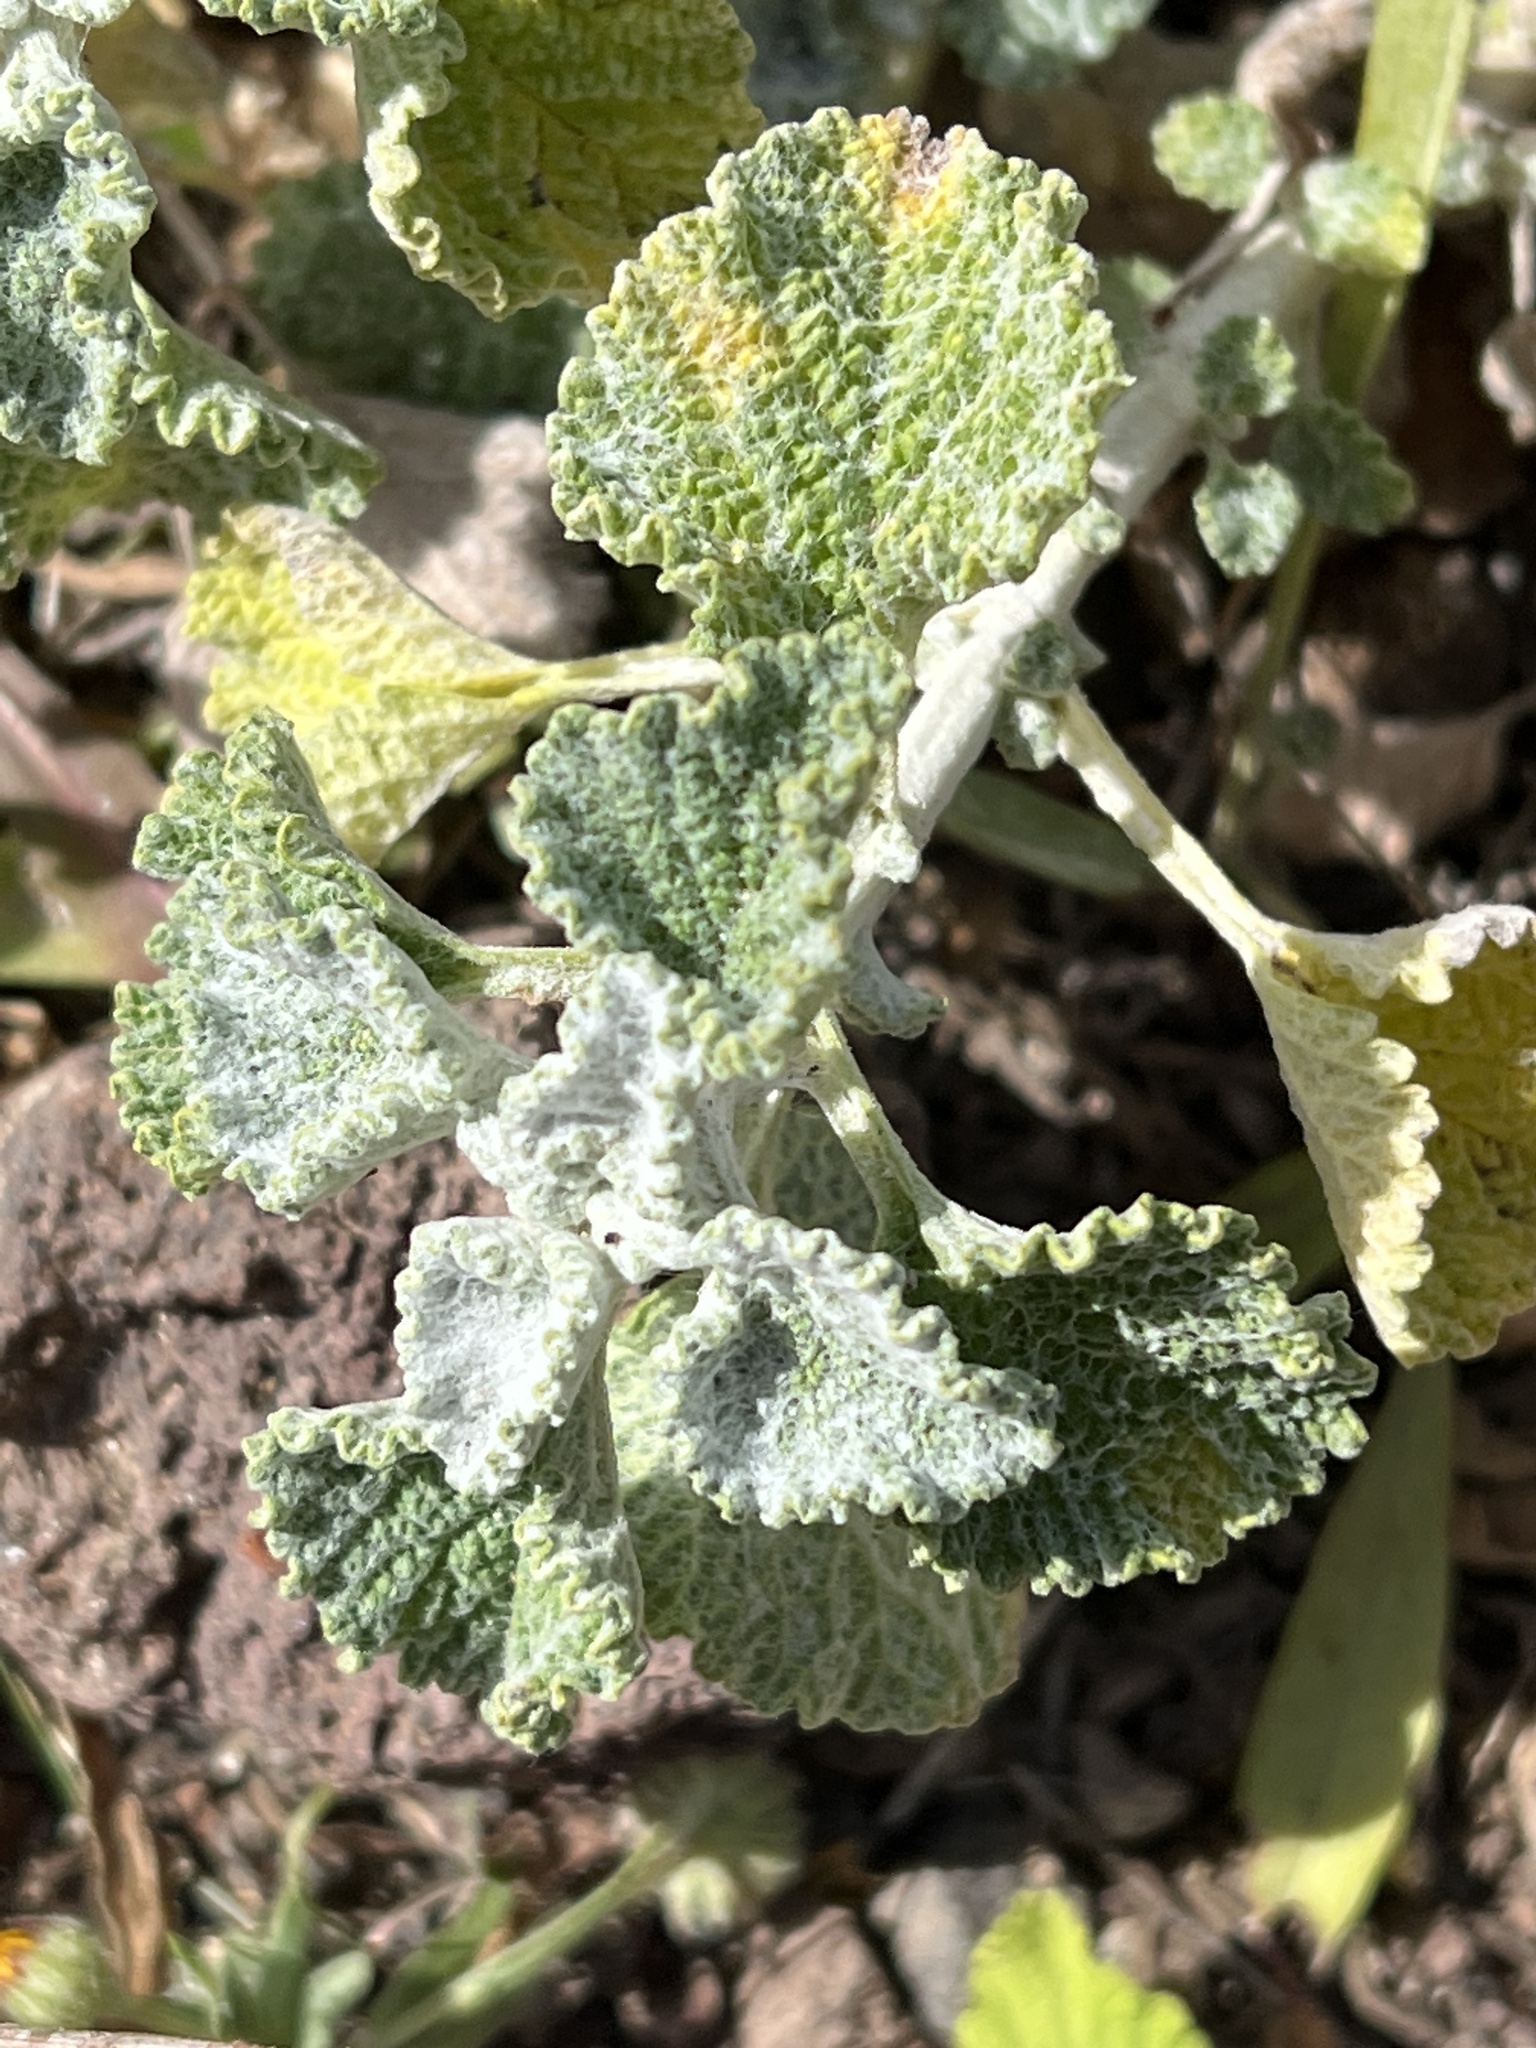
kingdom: Plantae
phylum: Tracheophyta
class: Magnoliopsida
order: Lamiales
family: Lamiaceae
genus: Marrubium
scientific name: Marrubium vulgare
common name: Horehound
